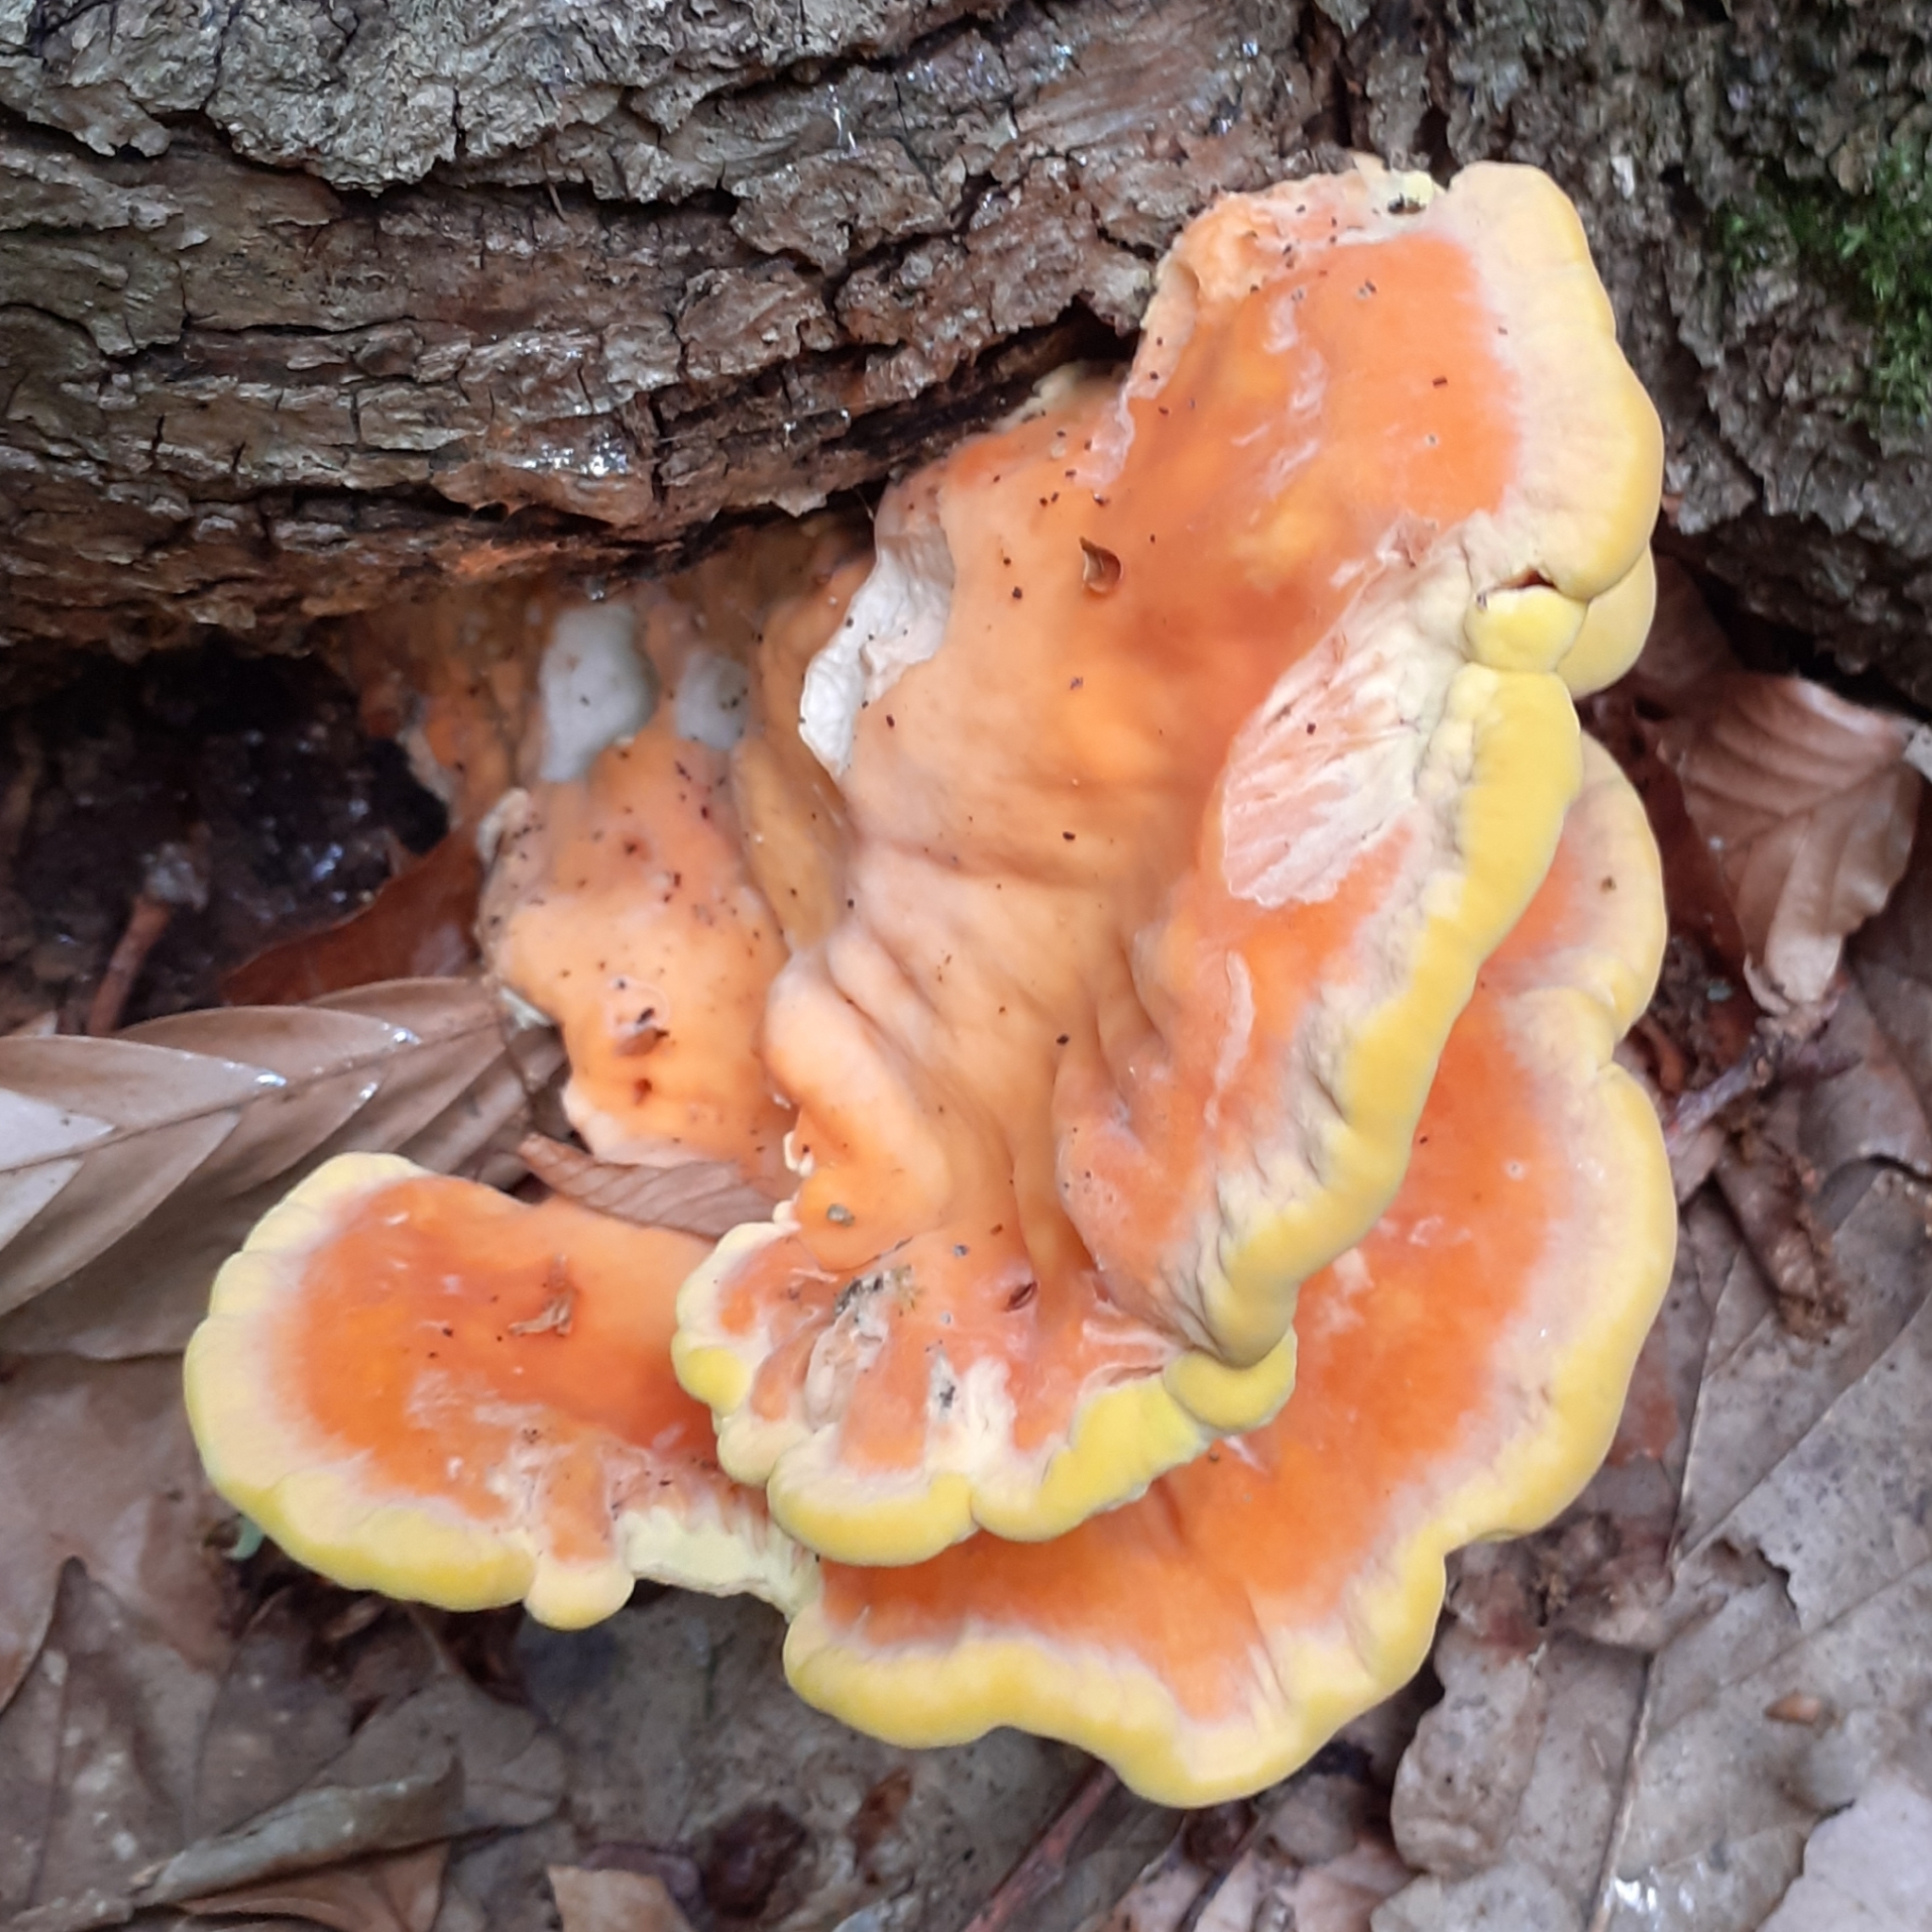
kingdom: Fungi
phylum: Basidiomycota
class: Agaricomycetes
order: Polyporales
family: Laetiporaceae
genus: Laetiporus
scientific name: Laetiporus sulphureus
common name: Chicken of the woods
